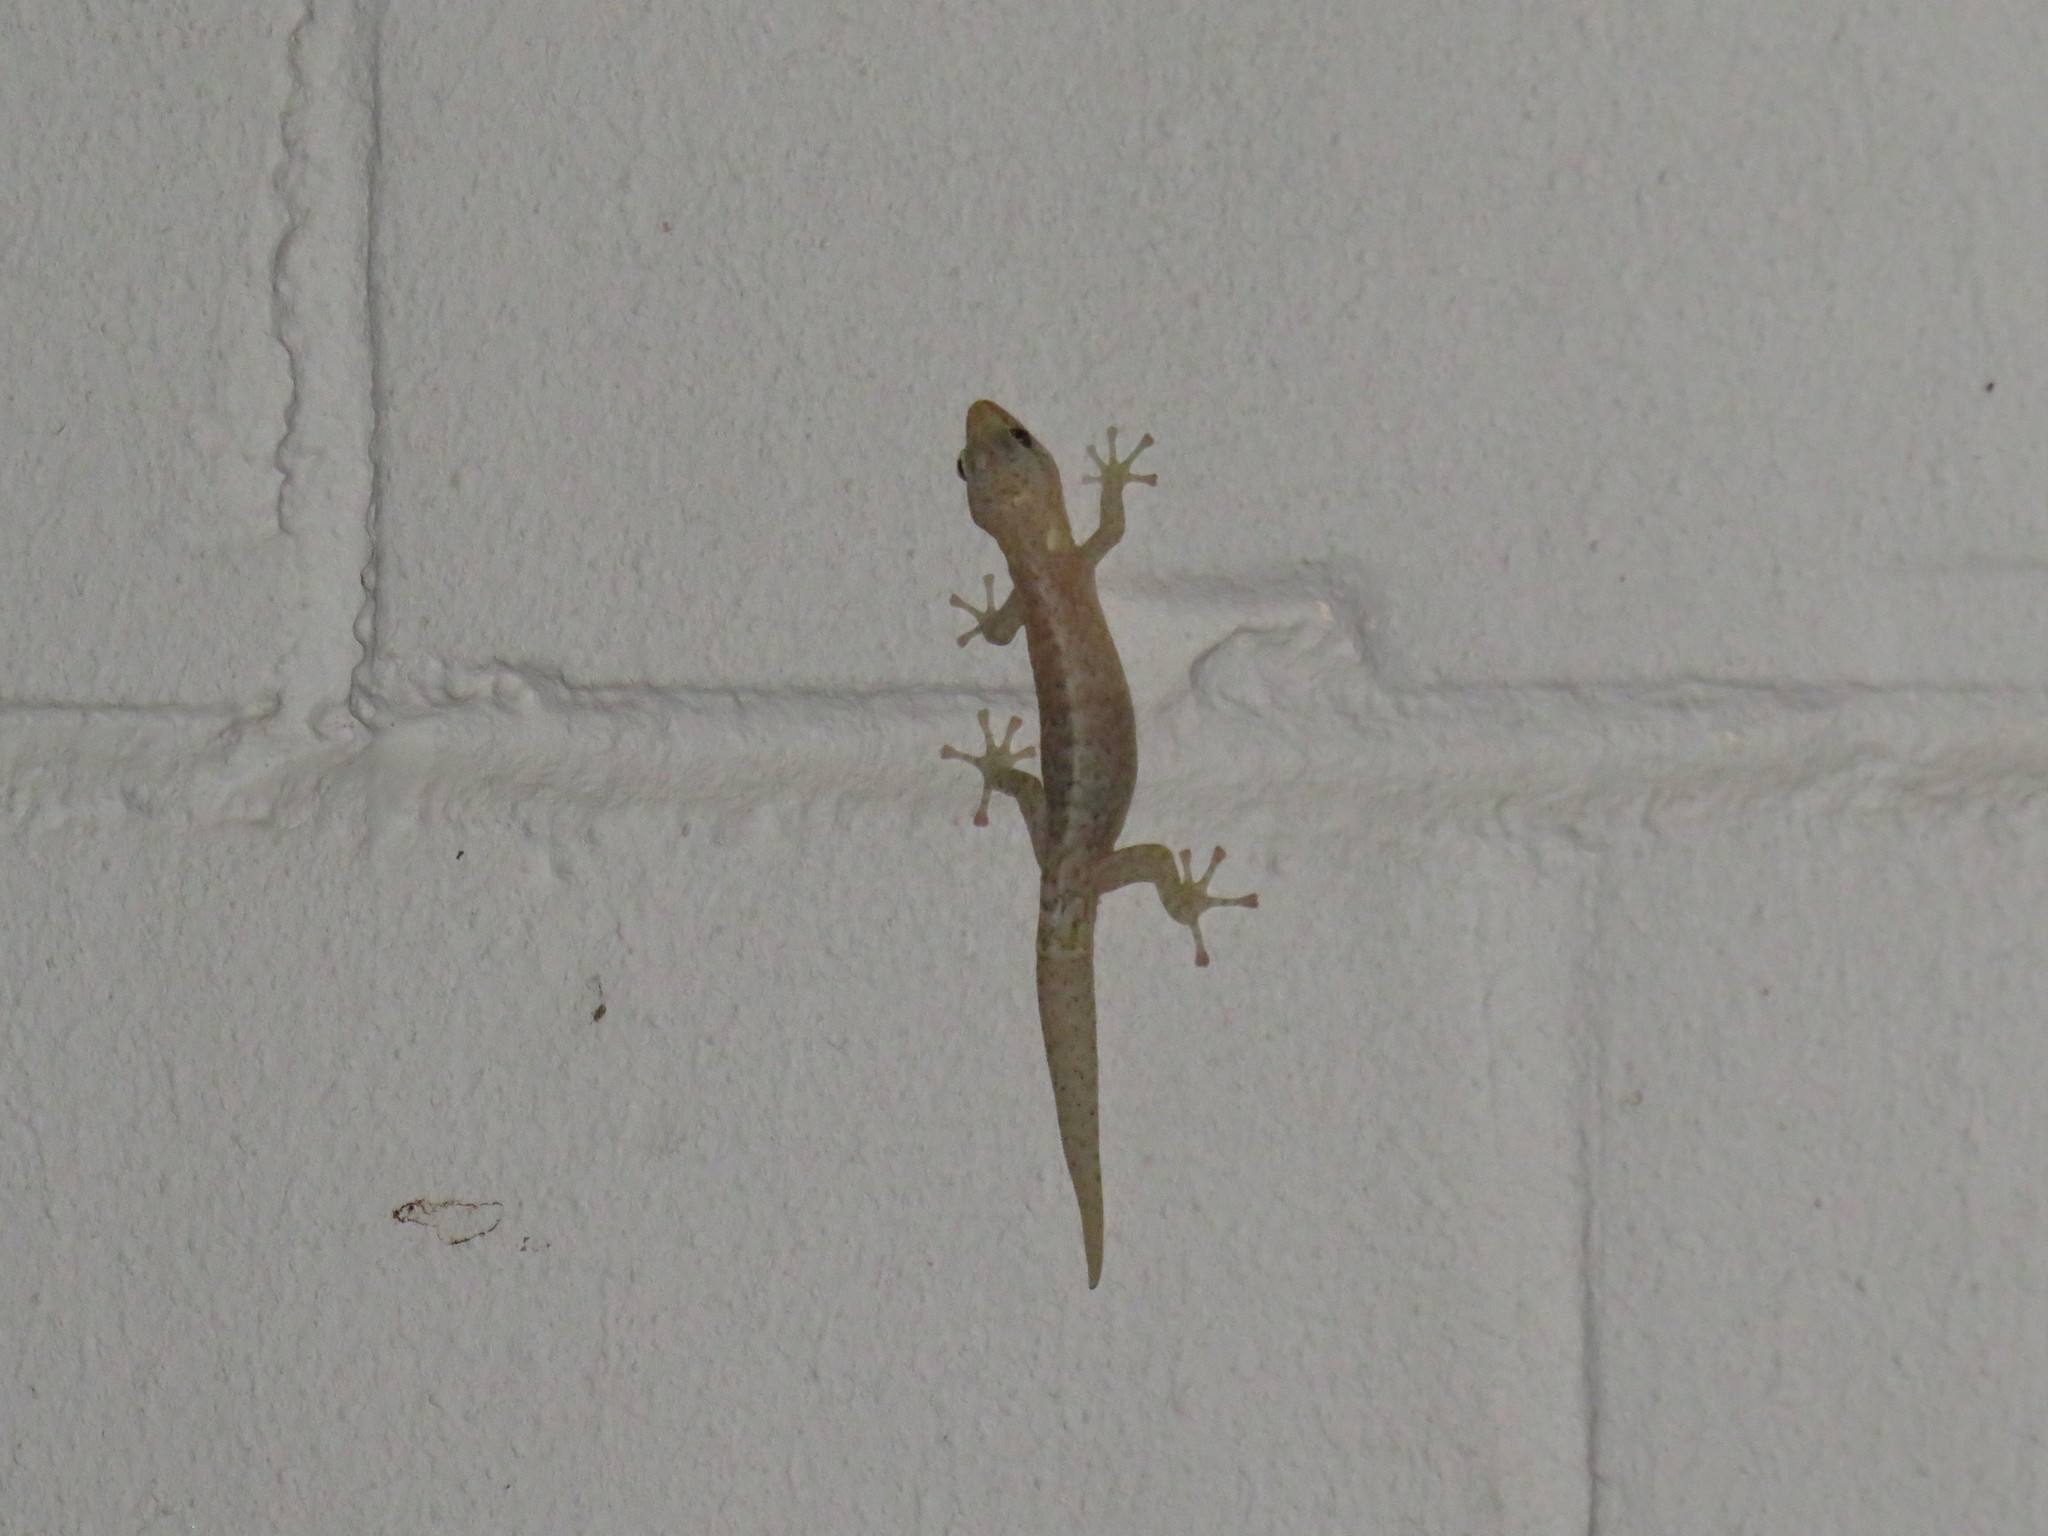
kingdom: Animalia
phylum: Chordata
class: Squamata
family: Gekkonidae
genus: Afrogecko
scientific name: Afrogecko porphyreus
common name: Marbled leaf-toed gecko
